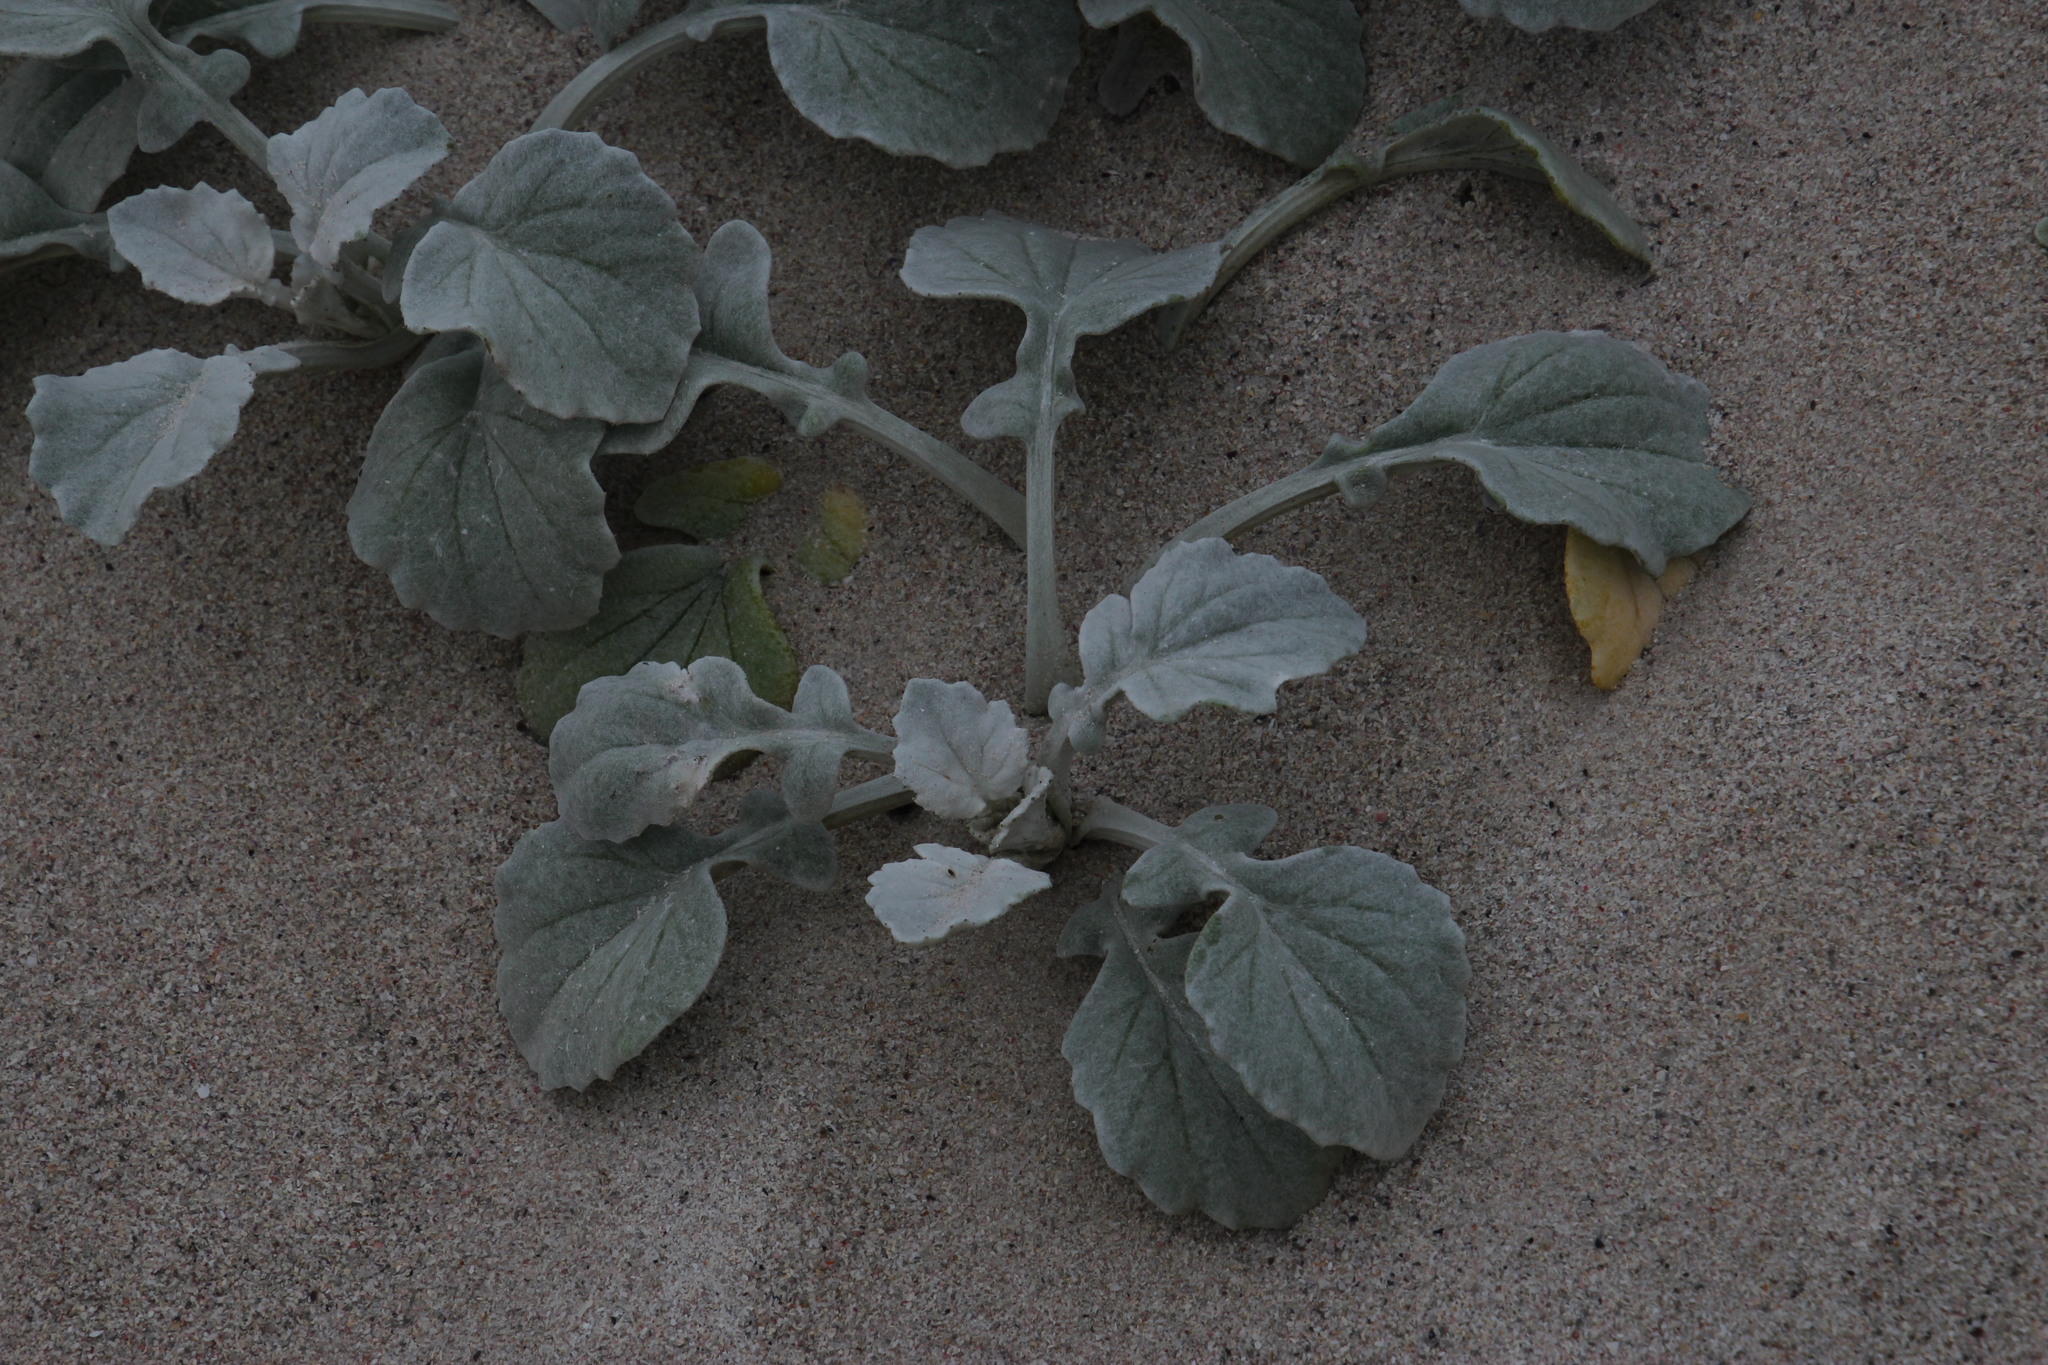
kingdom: Plantae
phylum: Tracheophyta
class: Magnoliopsida
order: Asterales
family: Asteraceae
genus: Arctotheca
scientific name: Arctotheca populifolia
